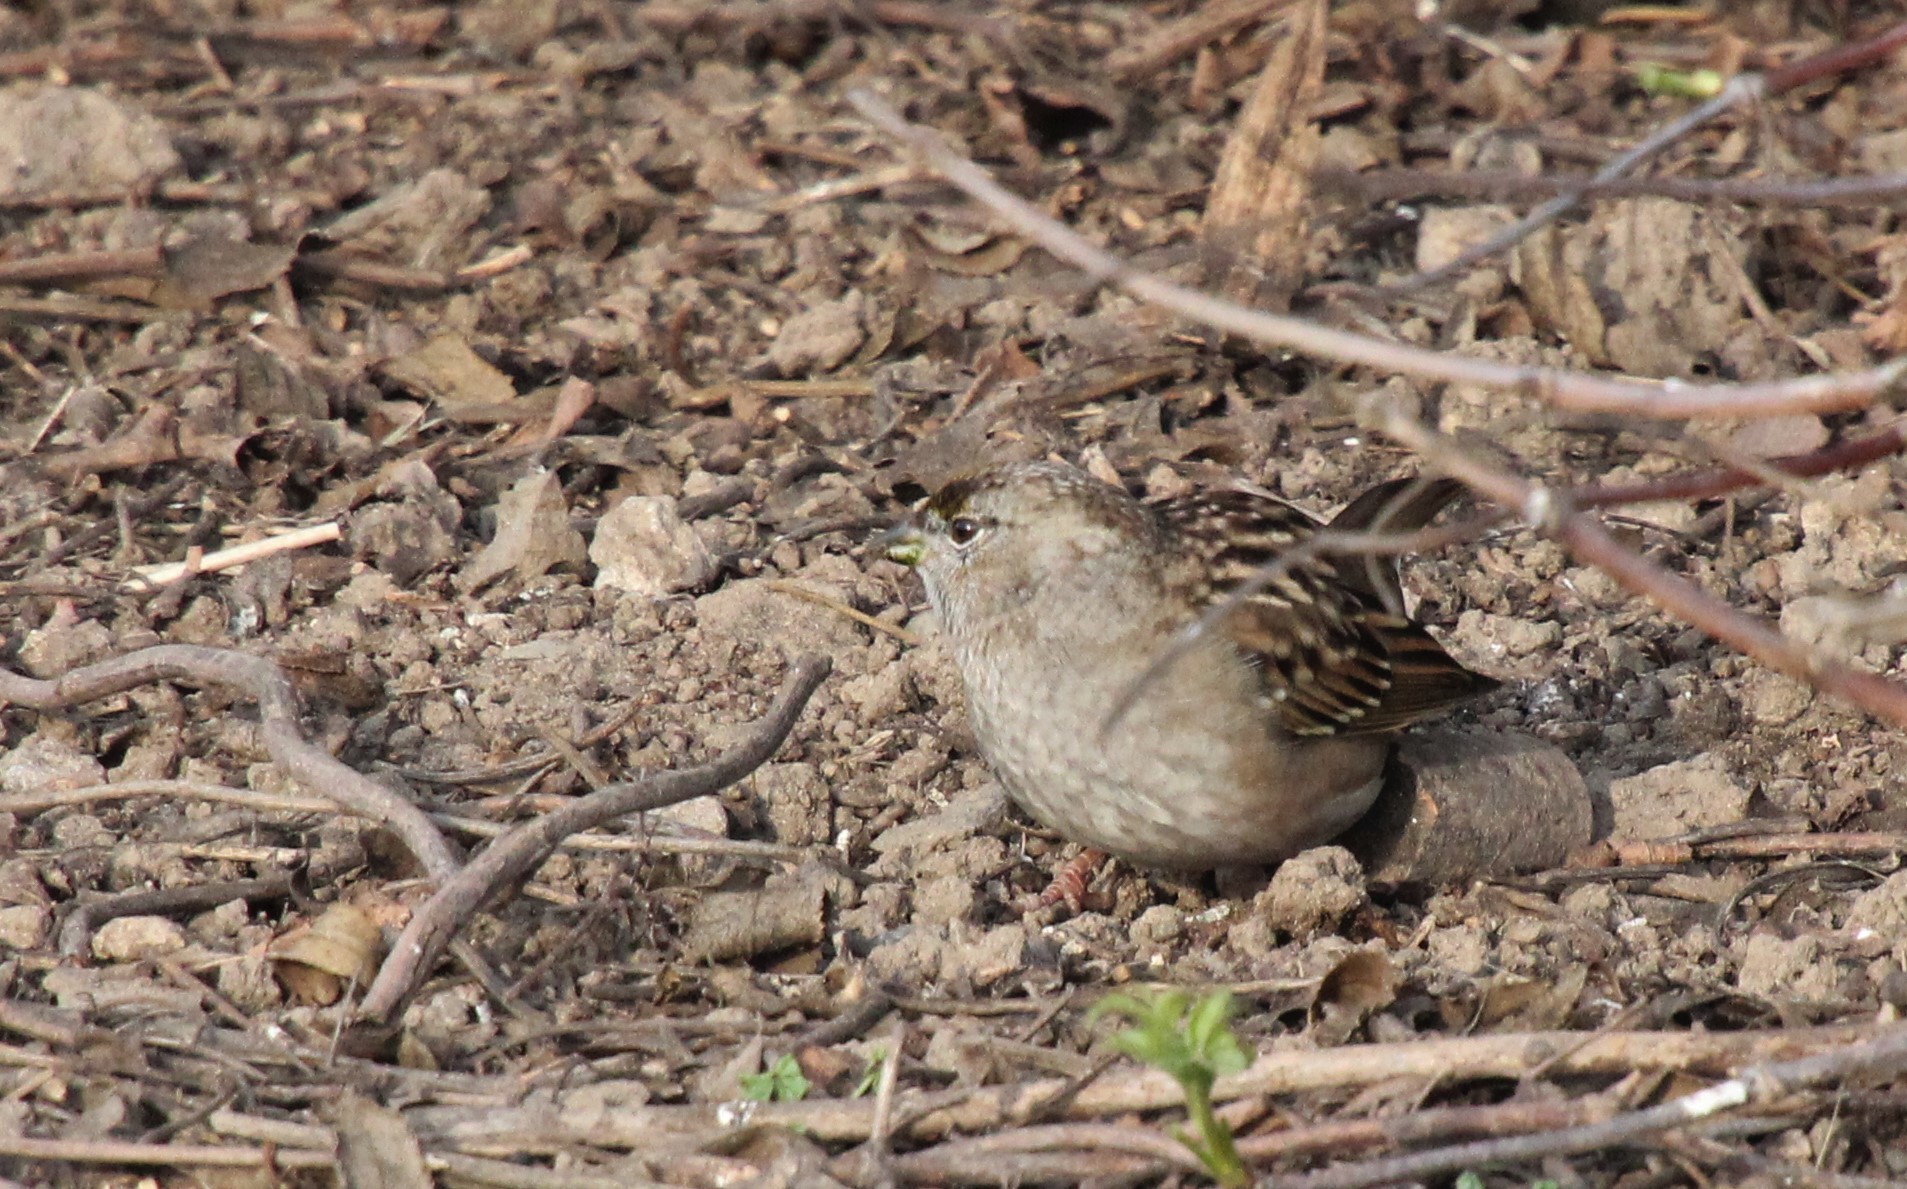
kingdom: Animalia
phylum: Chordata
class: Aves
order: Passeriformes
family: Passerellidae
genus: Zonotrichia
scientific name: Zonotrichia atricapilla
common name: Golden-crowned sparrow
